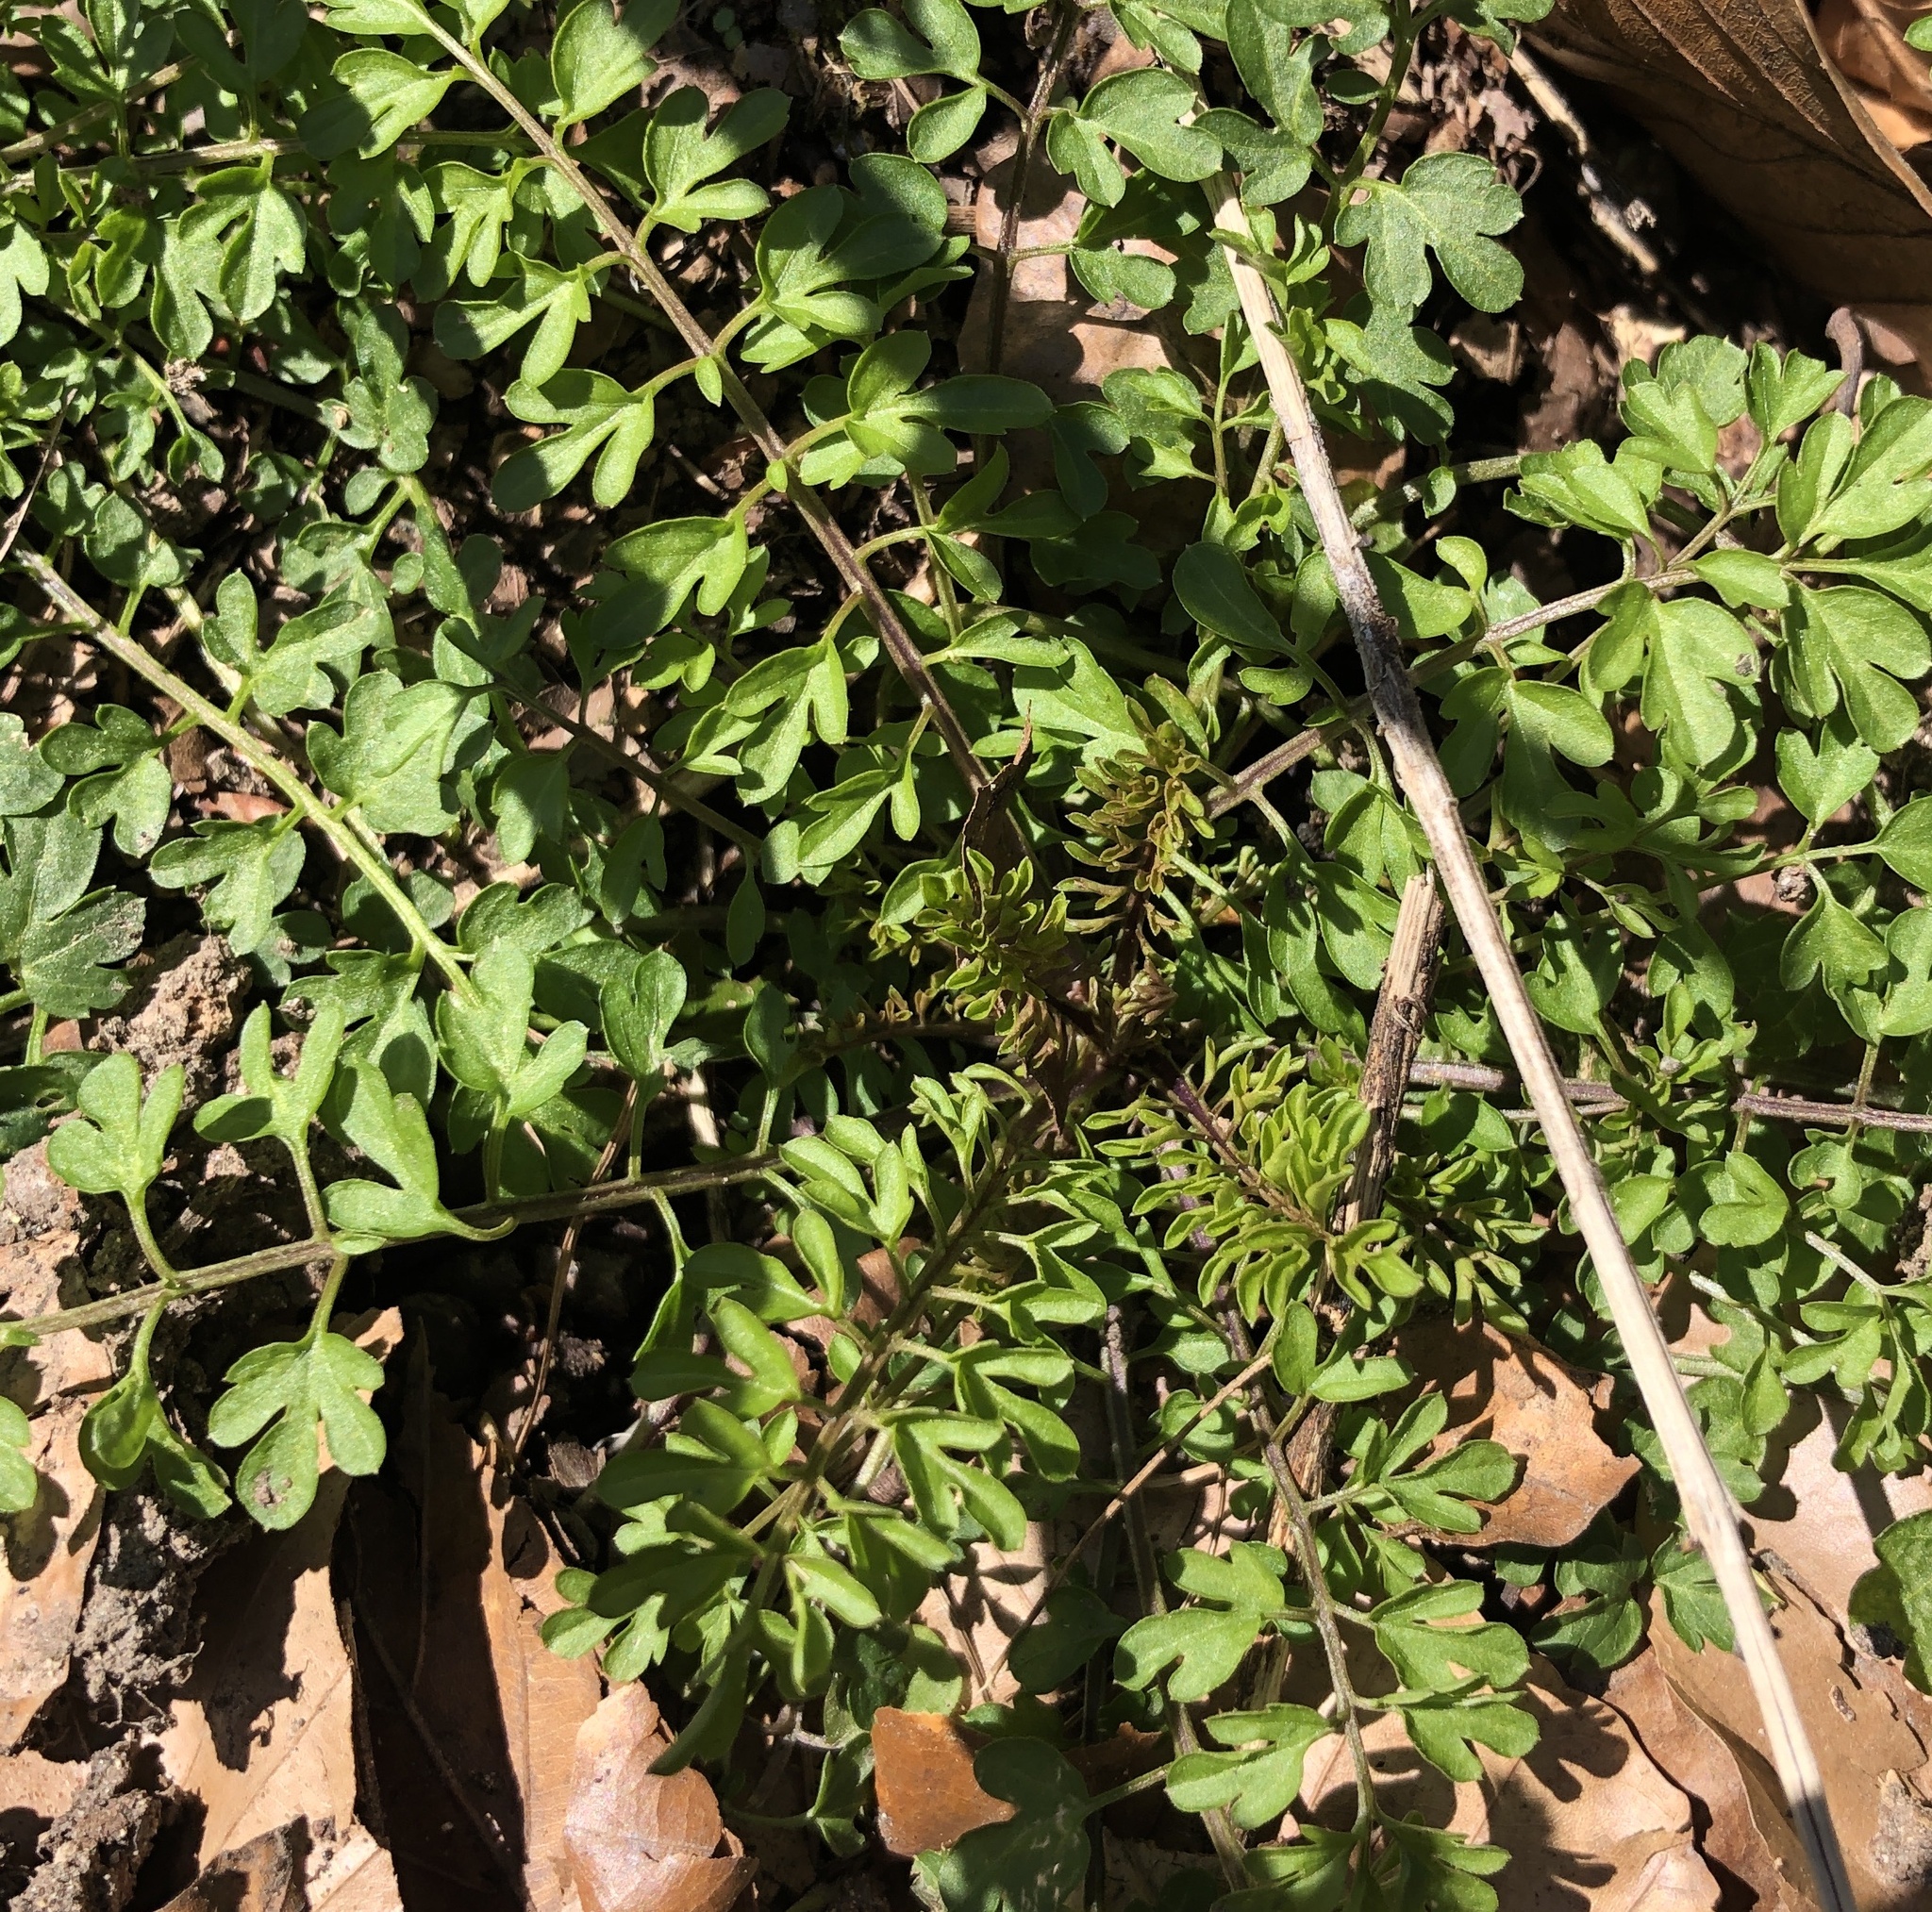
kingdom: Plantae
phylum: Tracheophyta
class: Magnoliopsida
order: Brassicales
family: Brassicaceae
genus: Cardamine
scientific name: Cardamine impatiens
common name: Narrow-leaved bitter-cress
